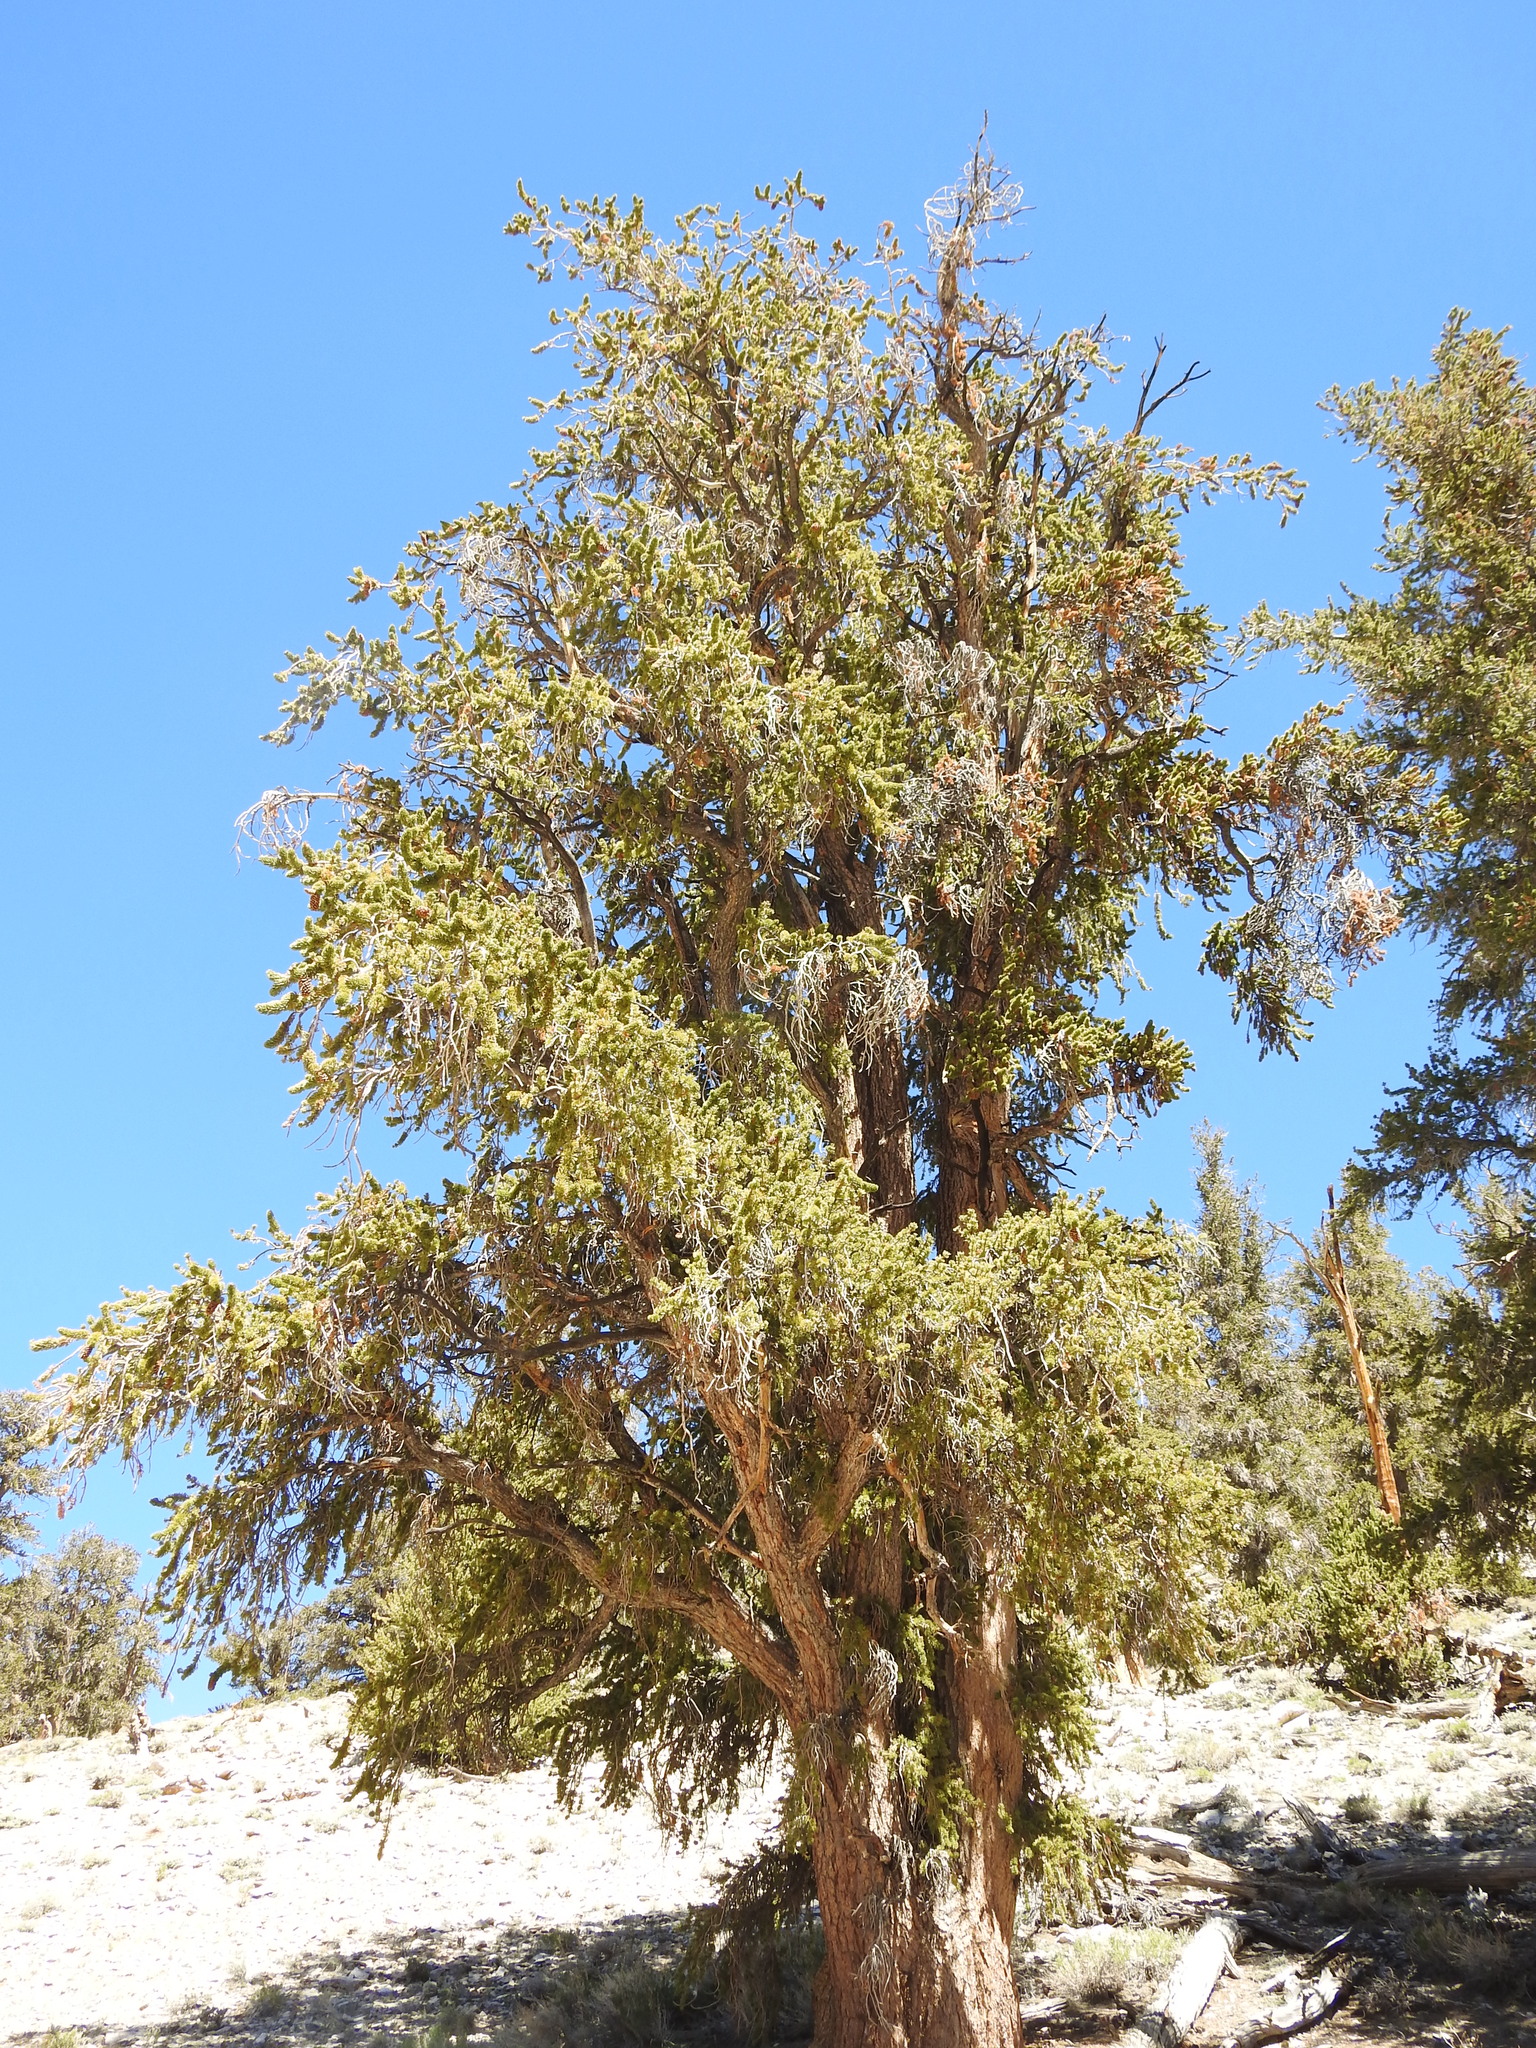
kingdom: Plantae
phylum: Tracheophyta
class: Pinopsida
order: Pinales
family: Pinaceae
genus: Pinus
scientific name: Pinus longaeva
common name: Intermountain bristlecone pine
